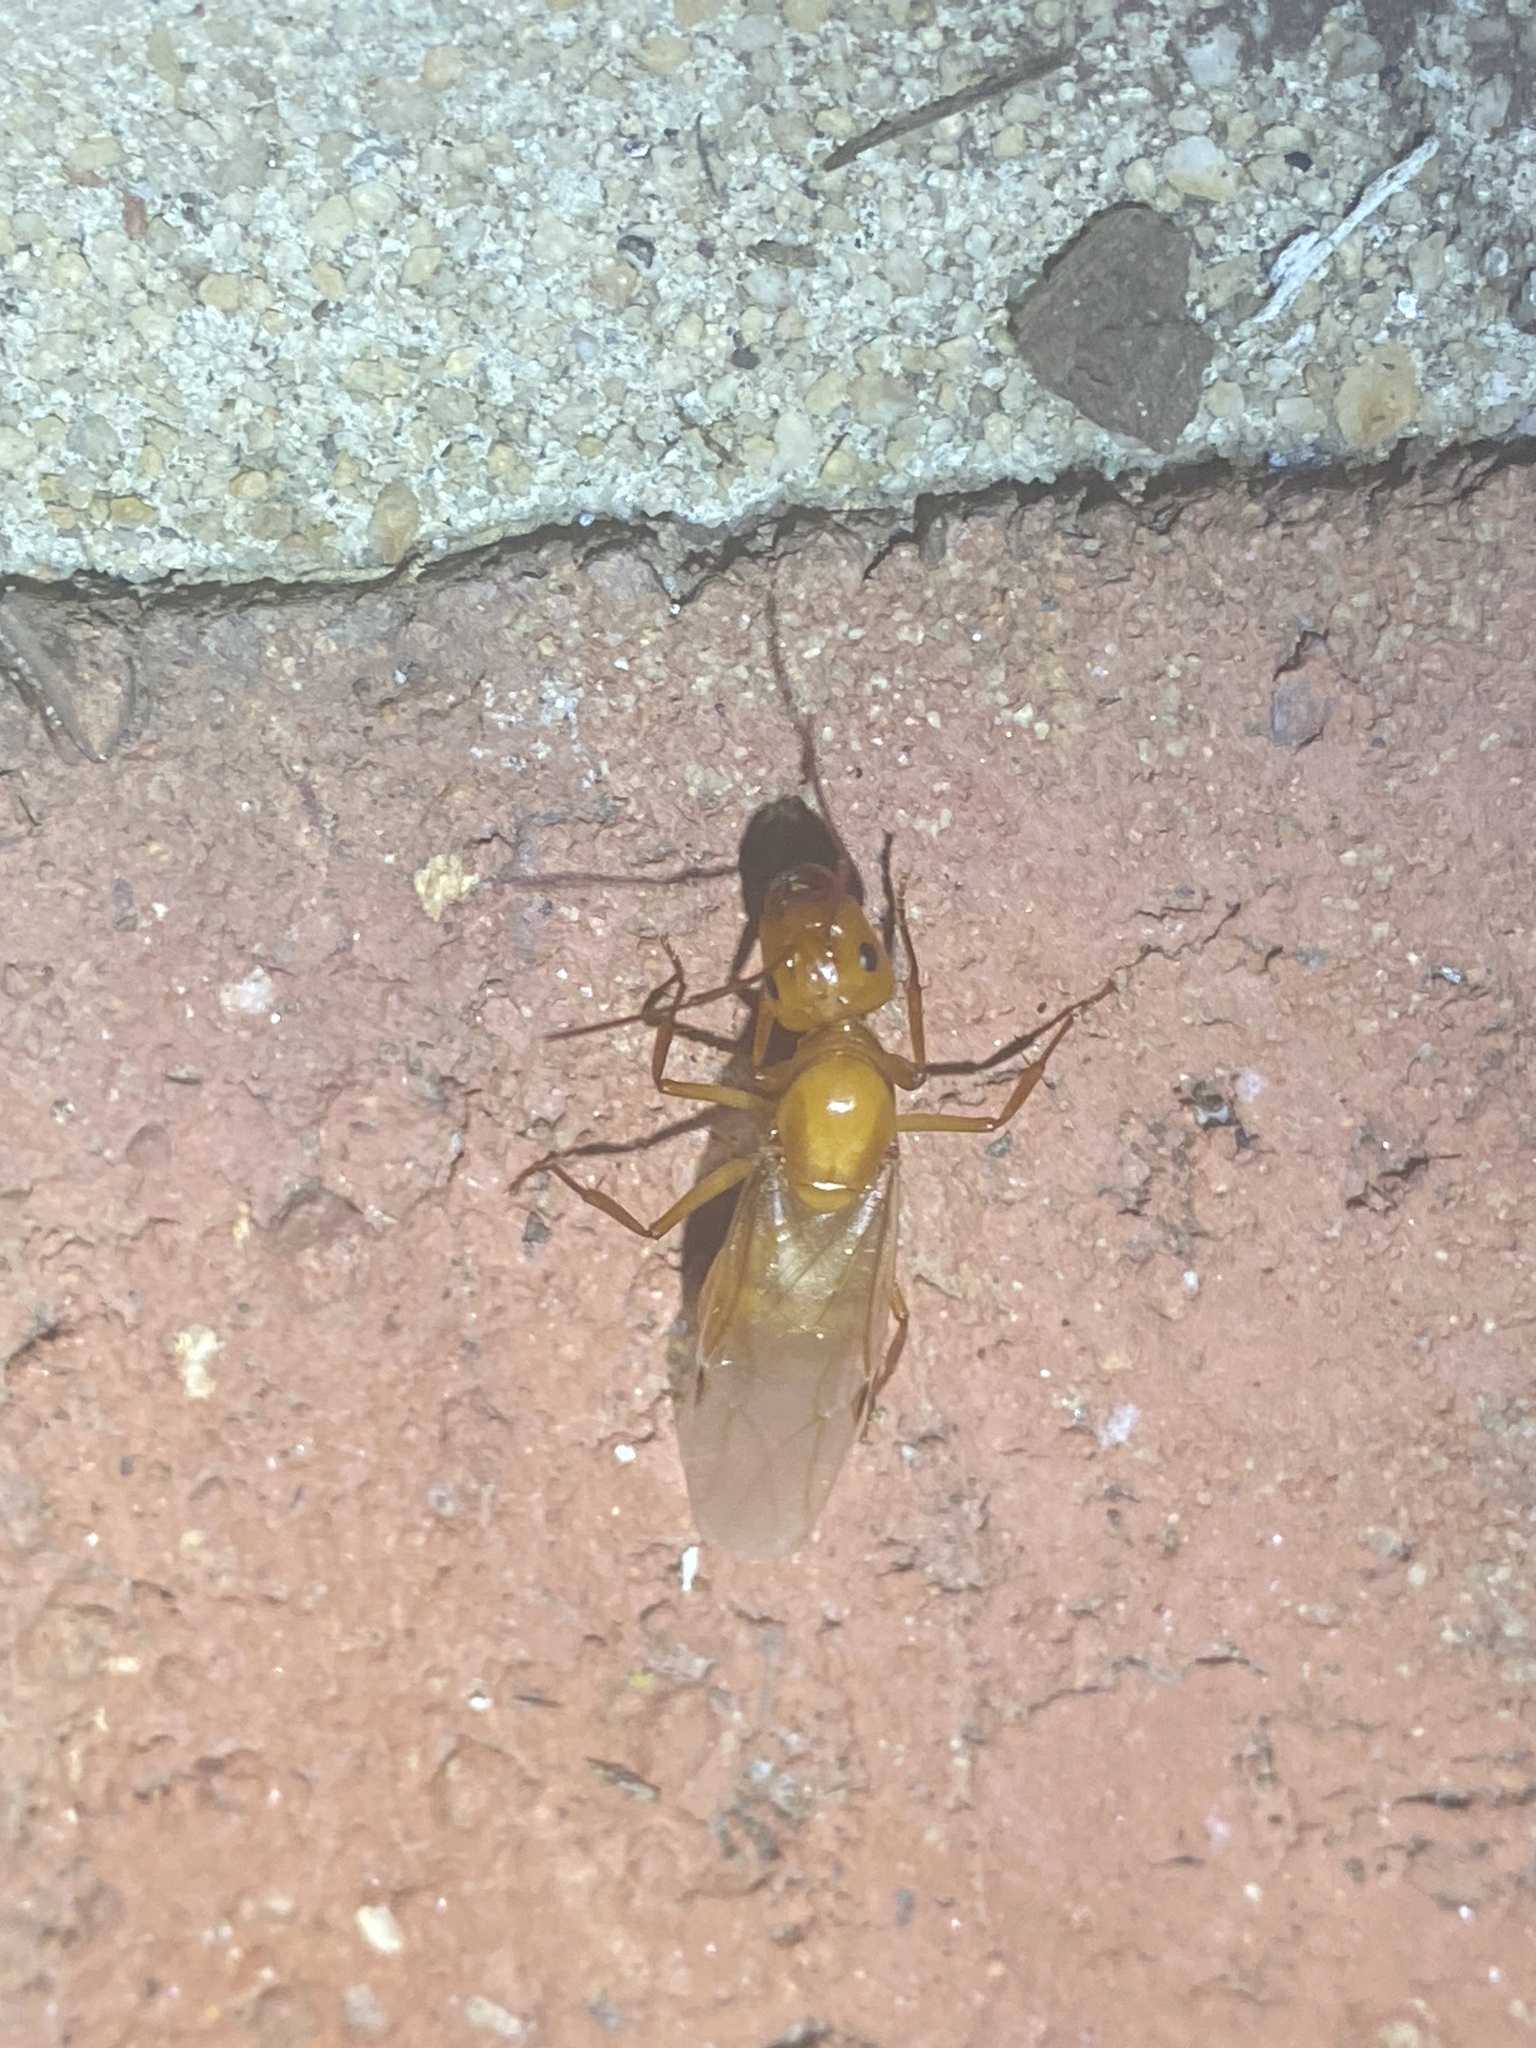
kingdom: Animalia
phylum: Arthropoda
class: Insecta
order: Hymenoptera
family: Formicidae
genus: Camponotus
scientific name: Camponotus castaneus
